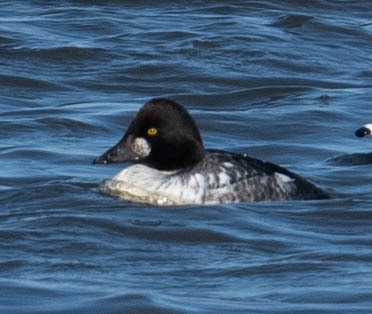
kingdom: Animalia
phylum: Chordata
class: Aves
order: Anseriformes
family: Anatidae
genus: Bucephala
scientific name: Bucephala clangula
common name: Common goldeneye
